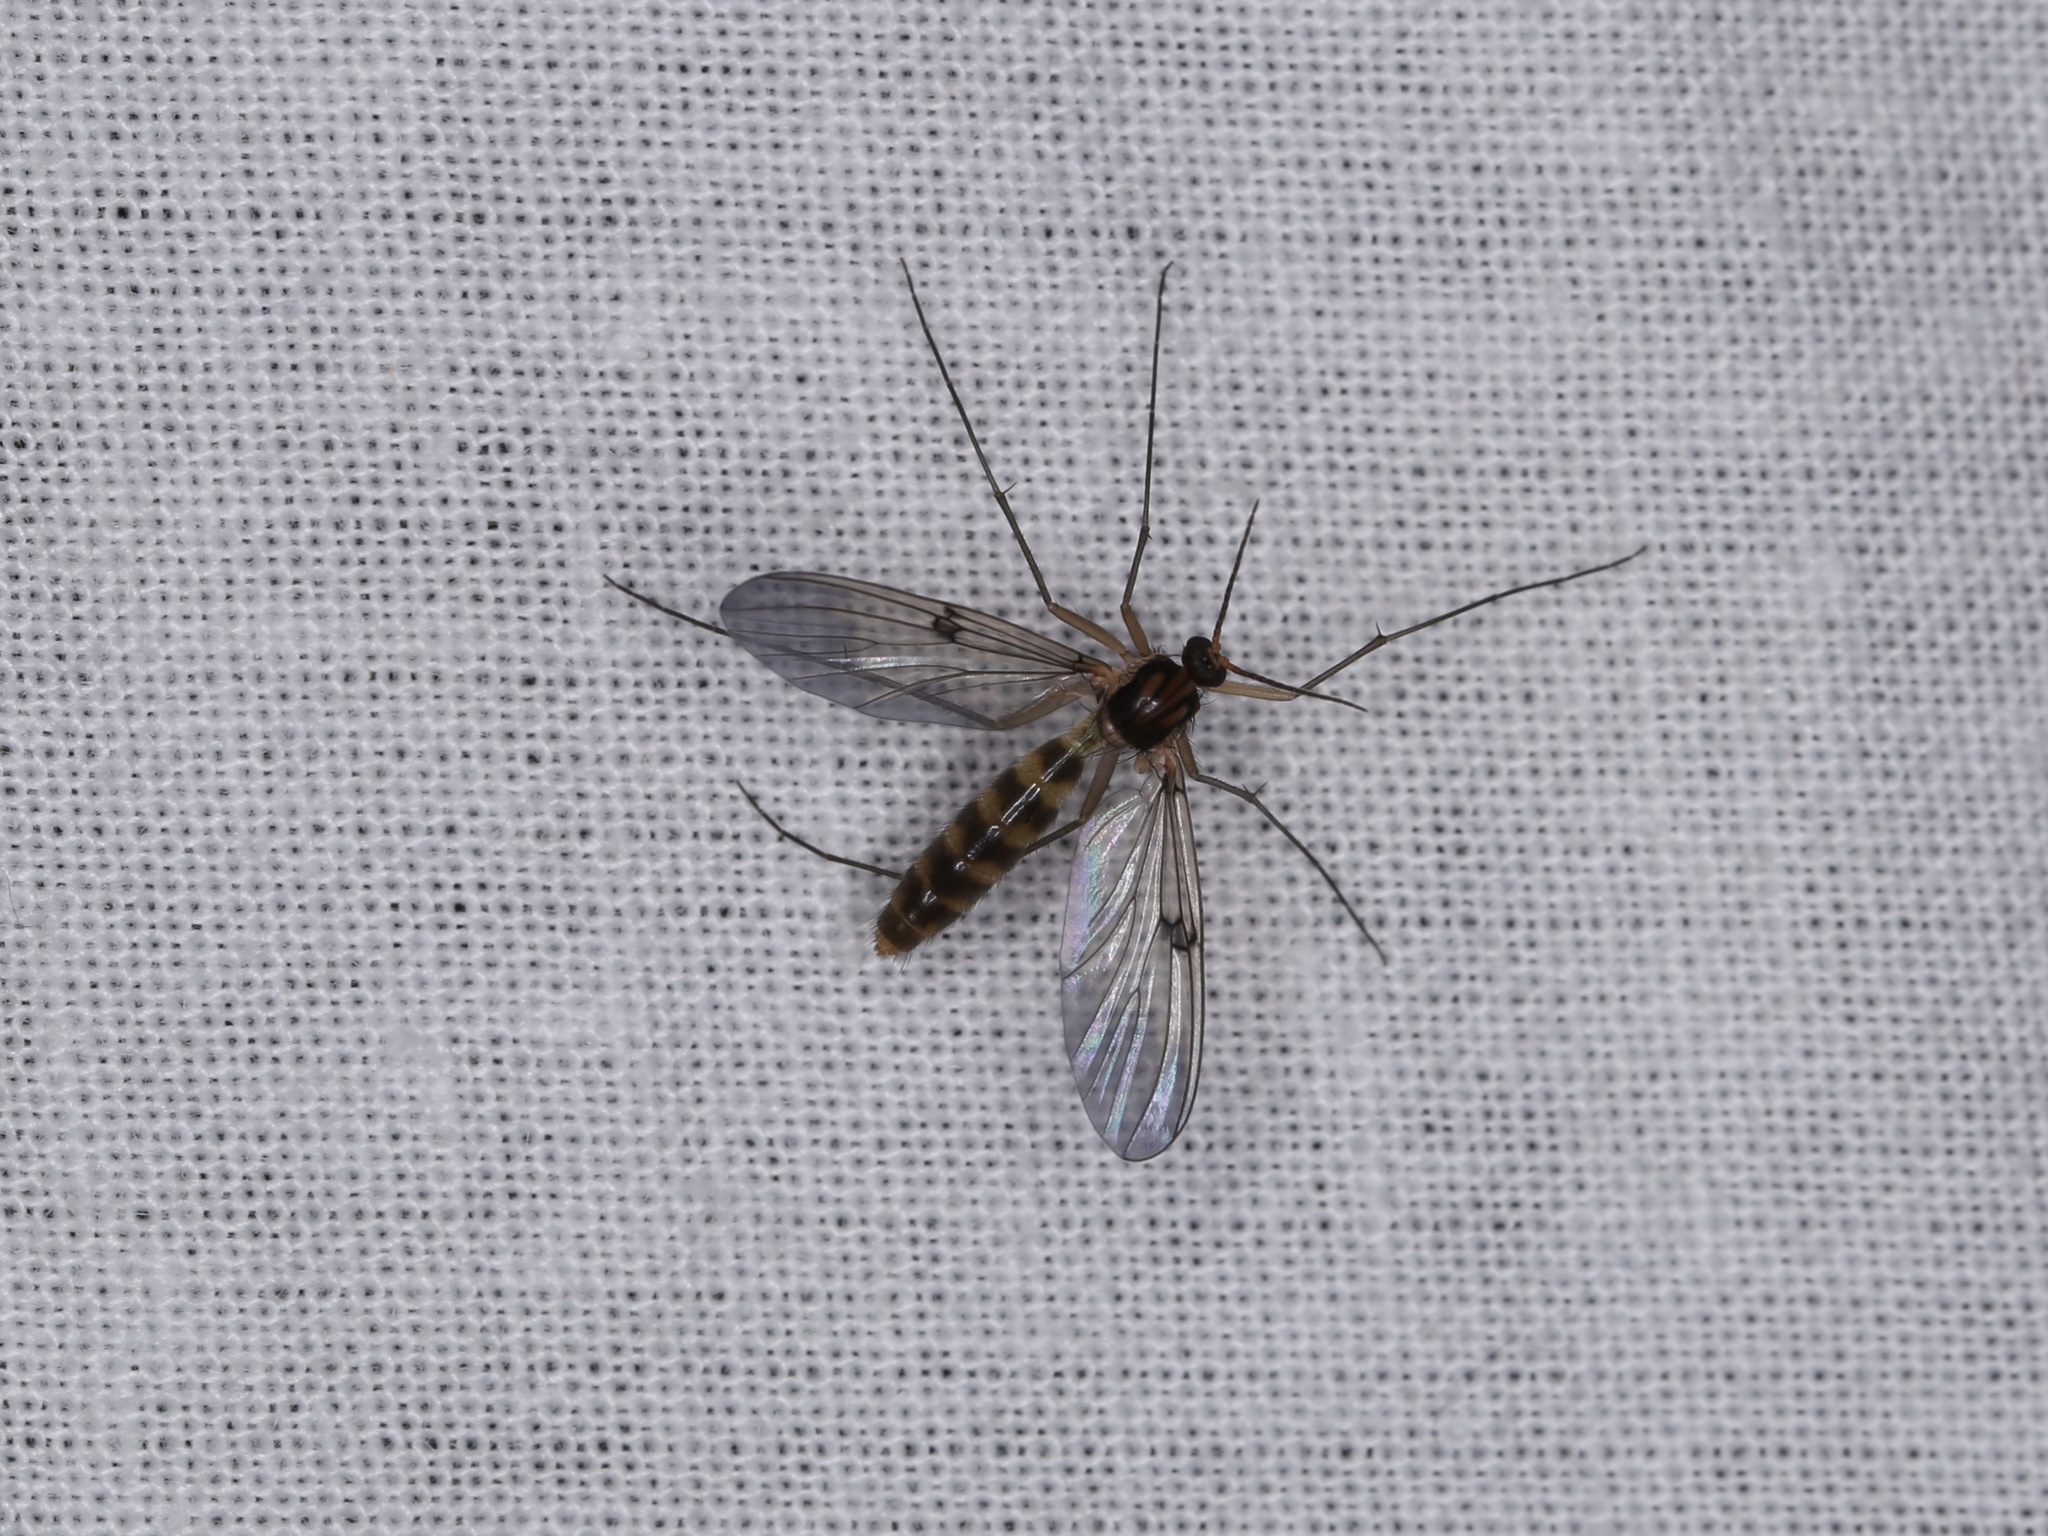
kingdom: Animalia
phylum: Arthropoda
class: Insecta
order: Diptera
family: Mycetophilidae
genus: Mycomya
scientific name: Mycomya flavilatera
